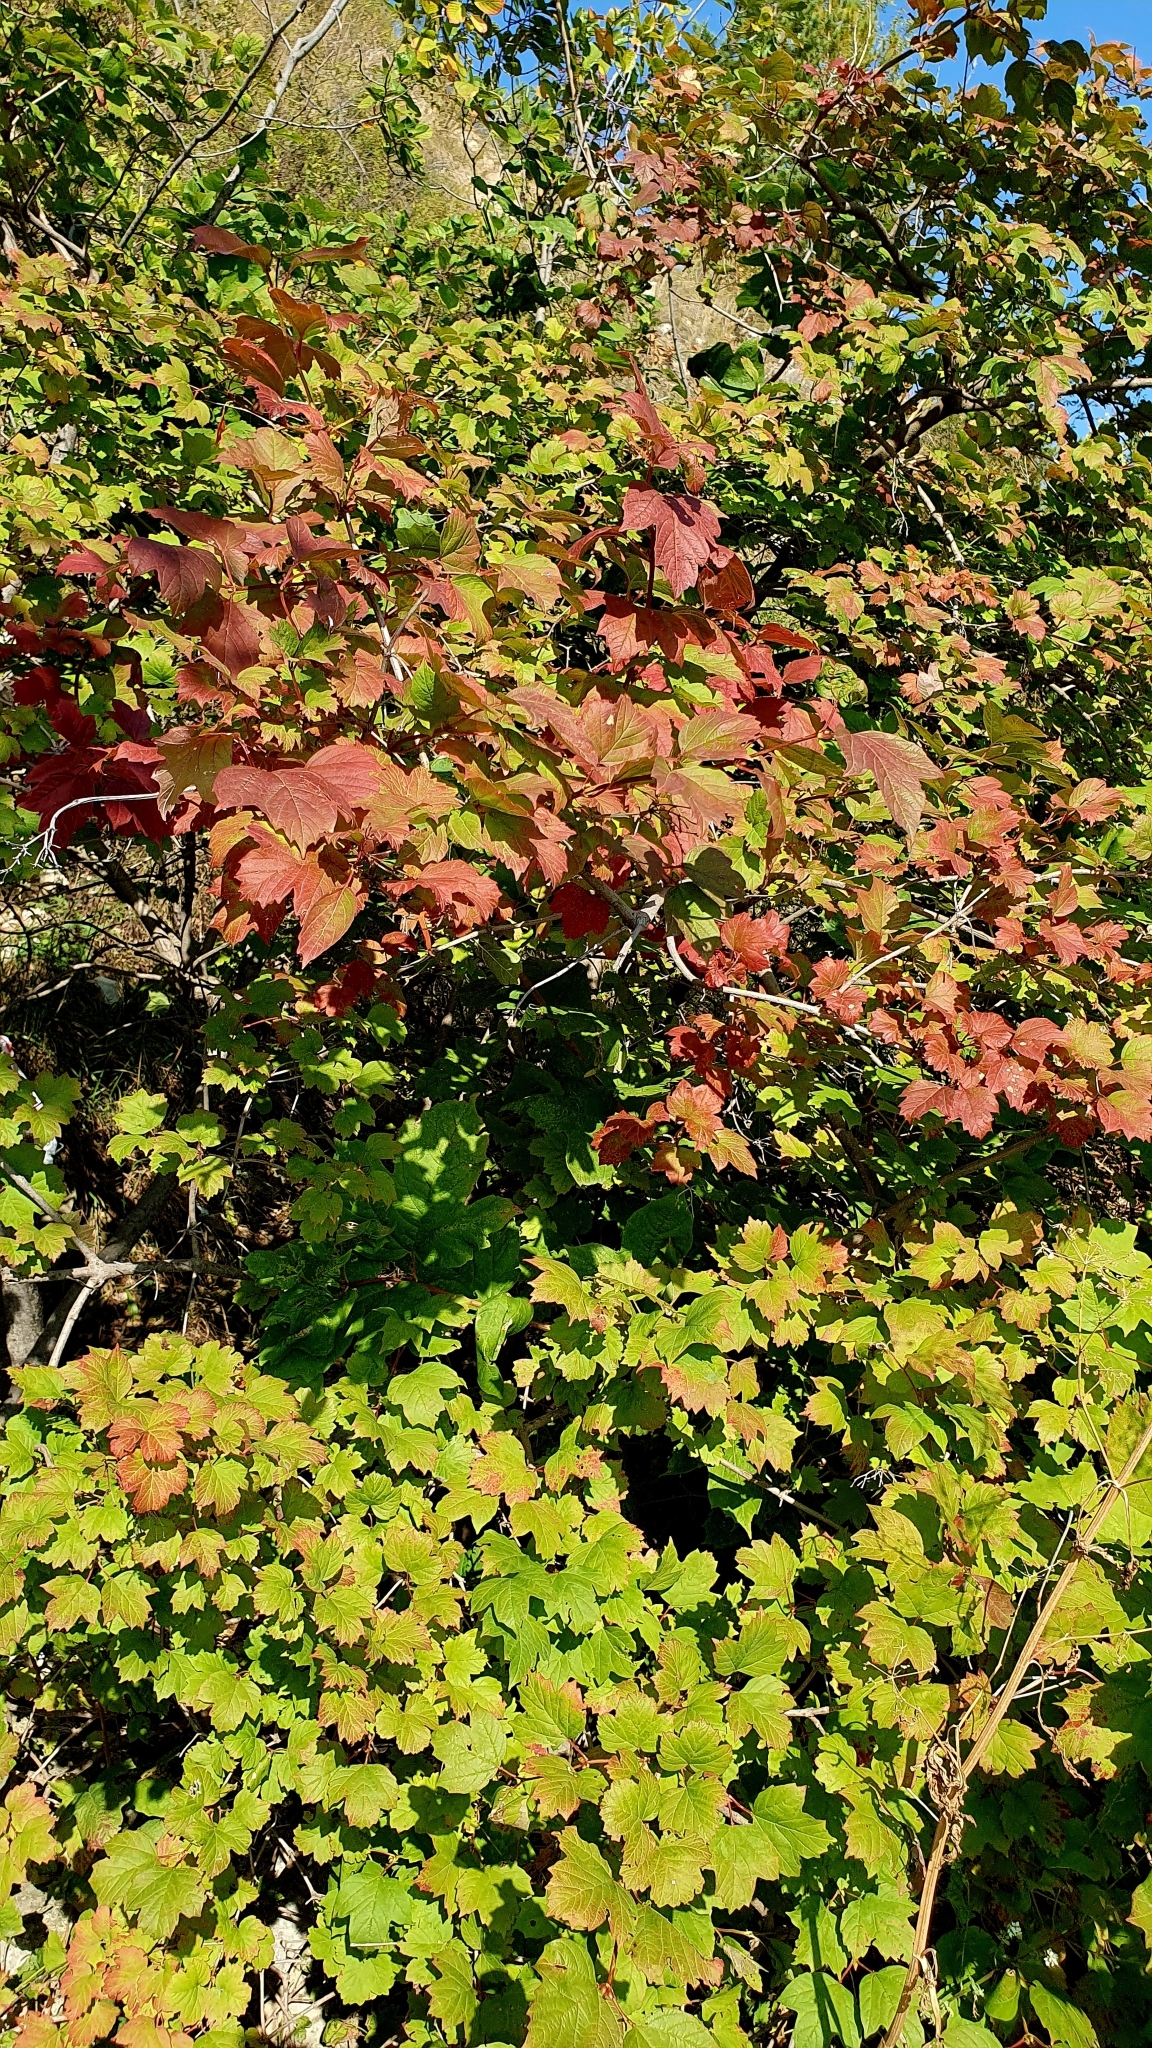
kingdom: Plantae
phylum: Tracheophyta
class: Magnoliopsida
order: Dipsacales
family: Viburnaceae
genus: Viburnum
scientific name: Viburnum opulus
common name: Guelder-rose
